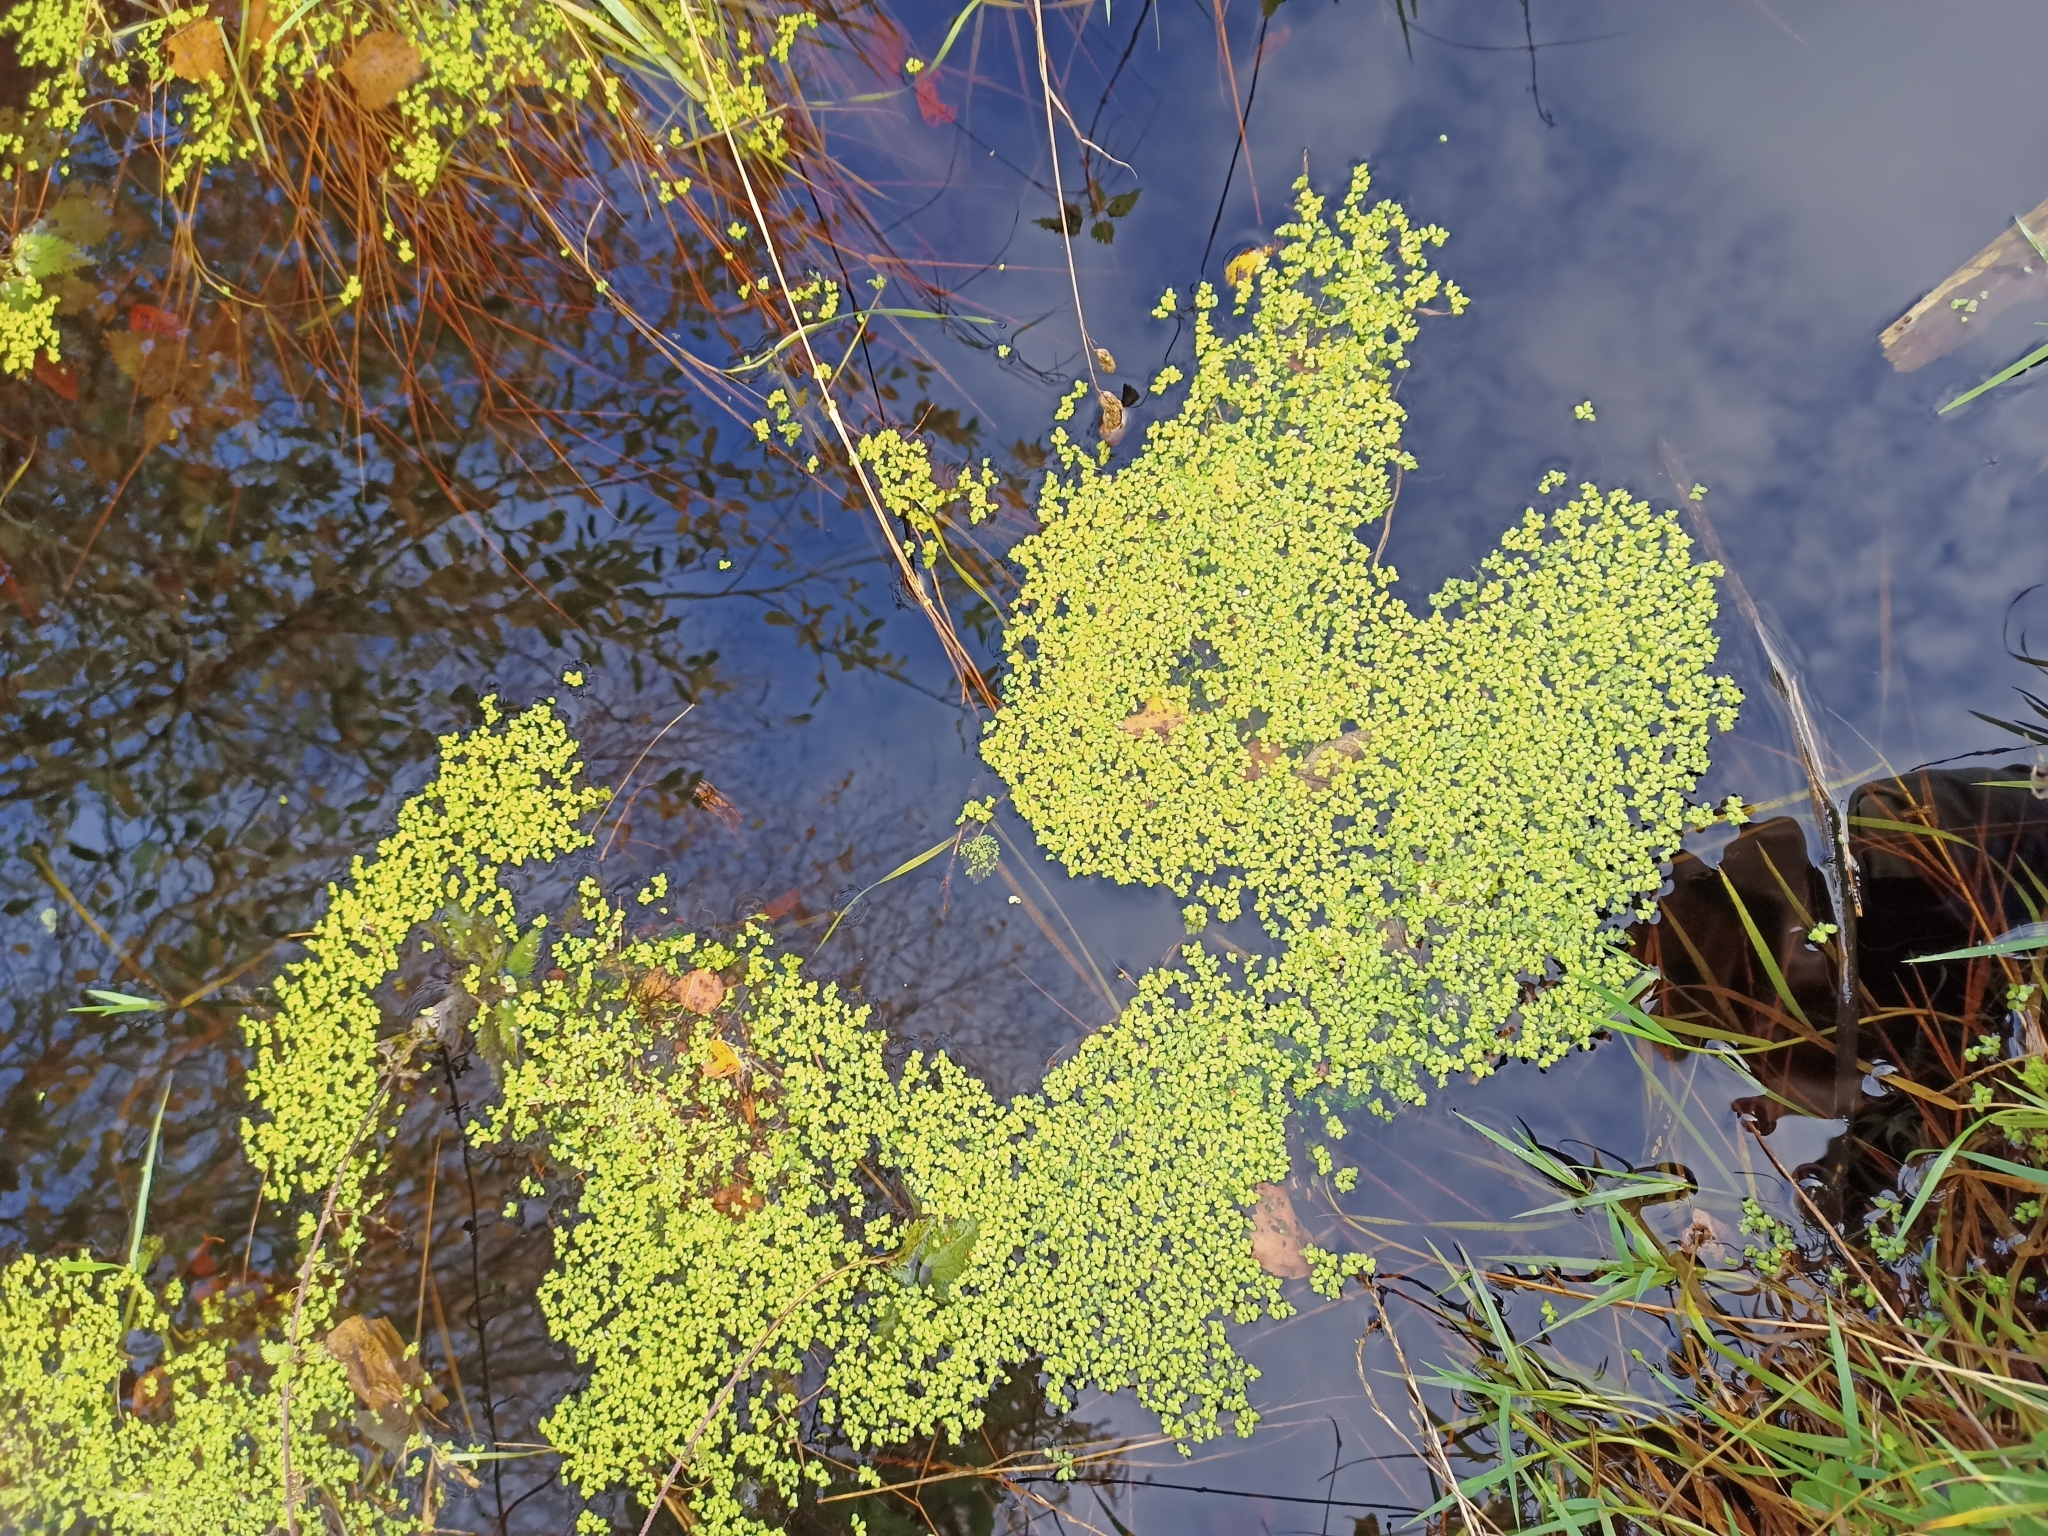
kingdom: Plantae
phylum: Tracheophyta
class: Liliopsida
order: Alismatales
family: Araceae
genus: Lemna
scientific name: Lemna minor
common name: Common duckweed
